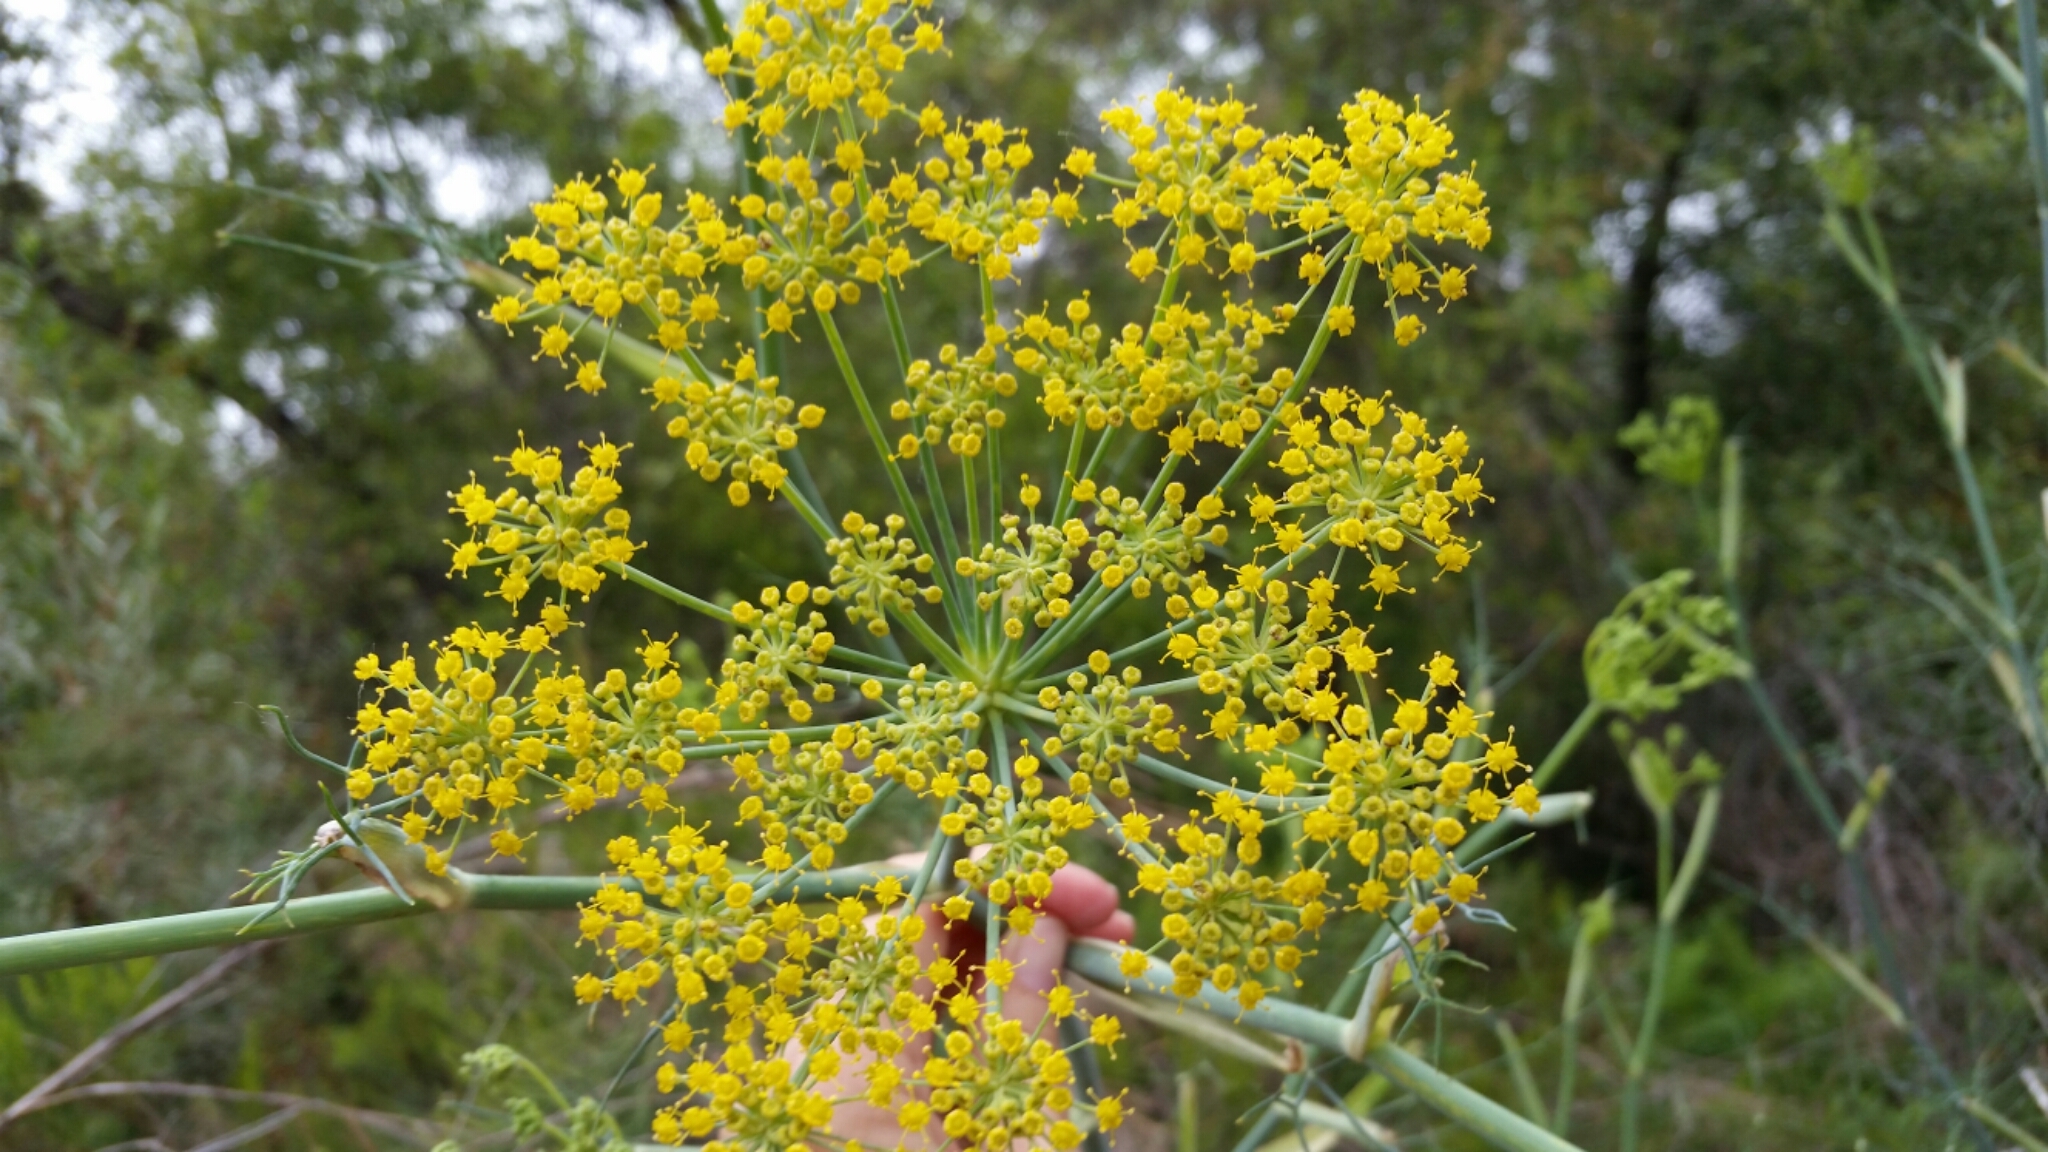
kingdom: Plantae
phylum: Tracheophyta
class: Magnoliopsida
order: Apiales
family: Apiaceae
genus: Foeniculum
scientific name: Foeniculum vulgare
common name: Fennel
